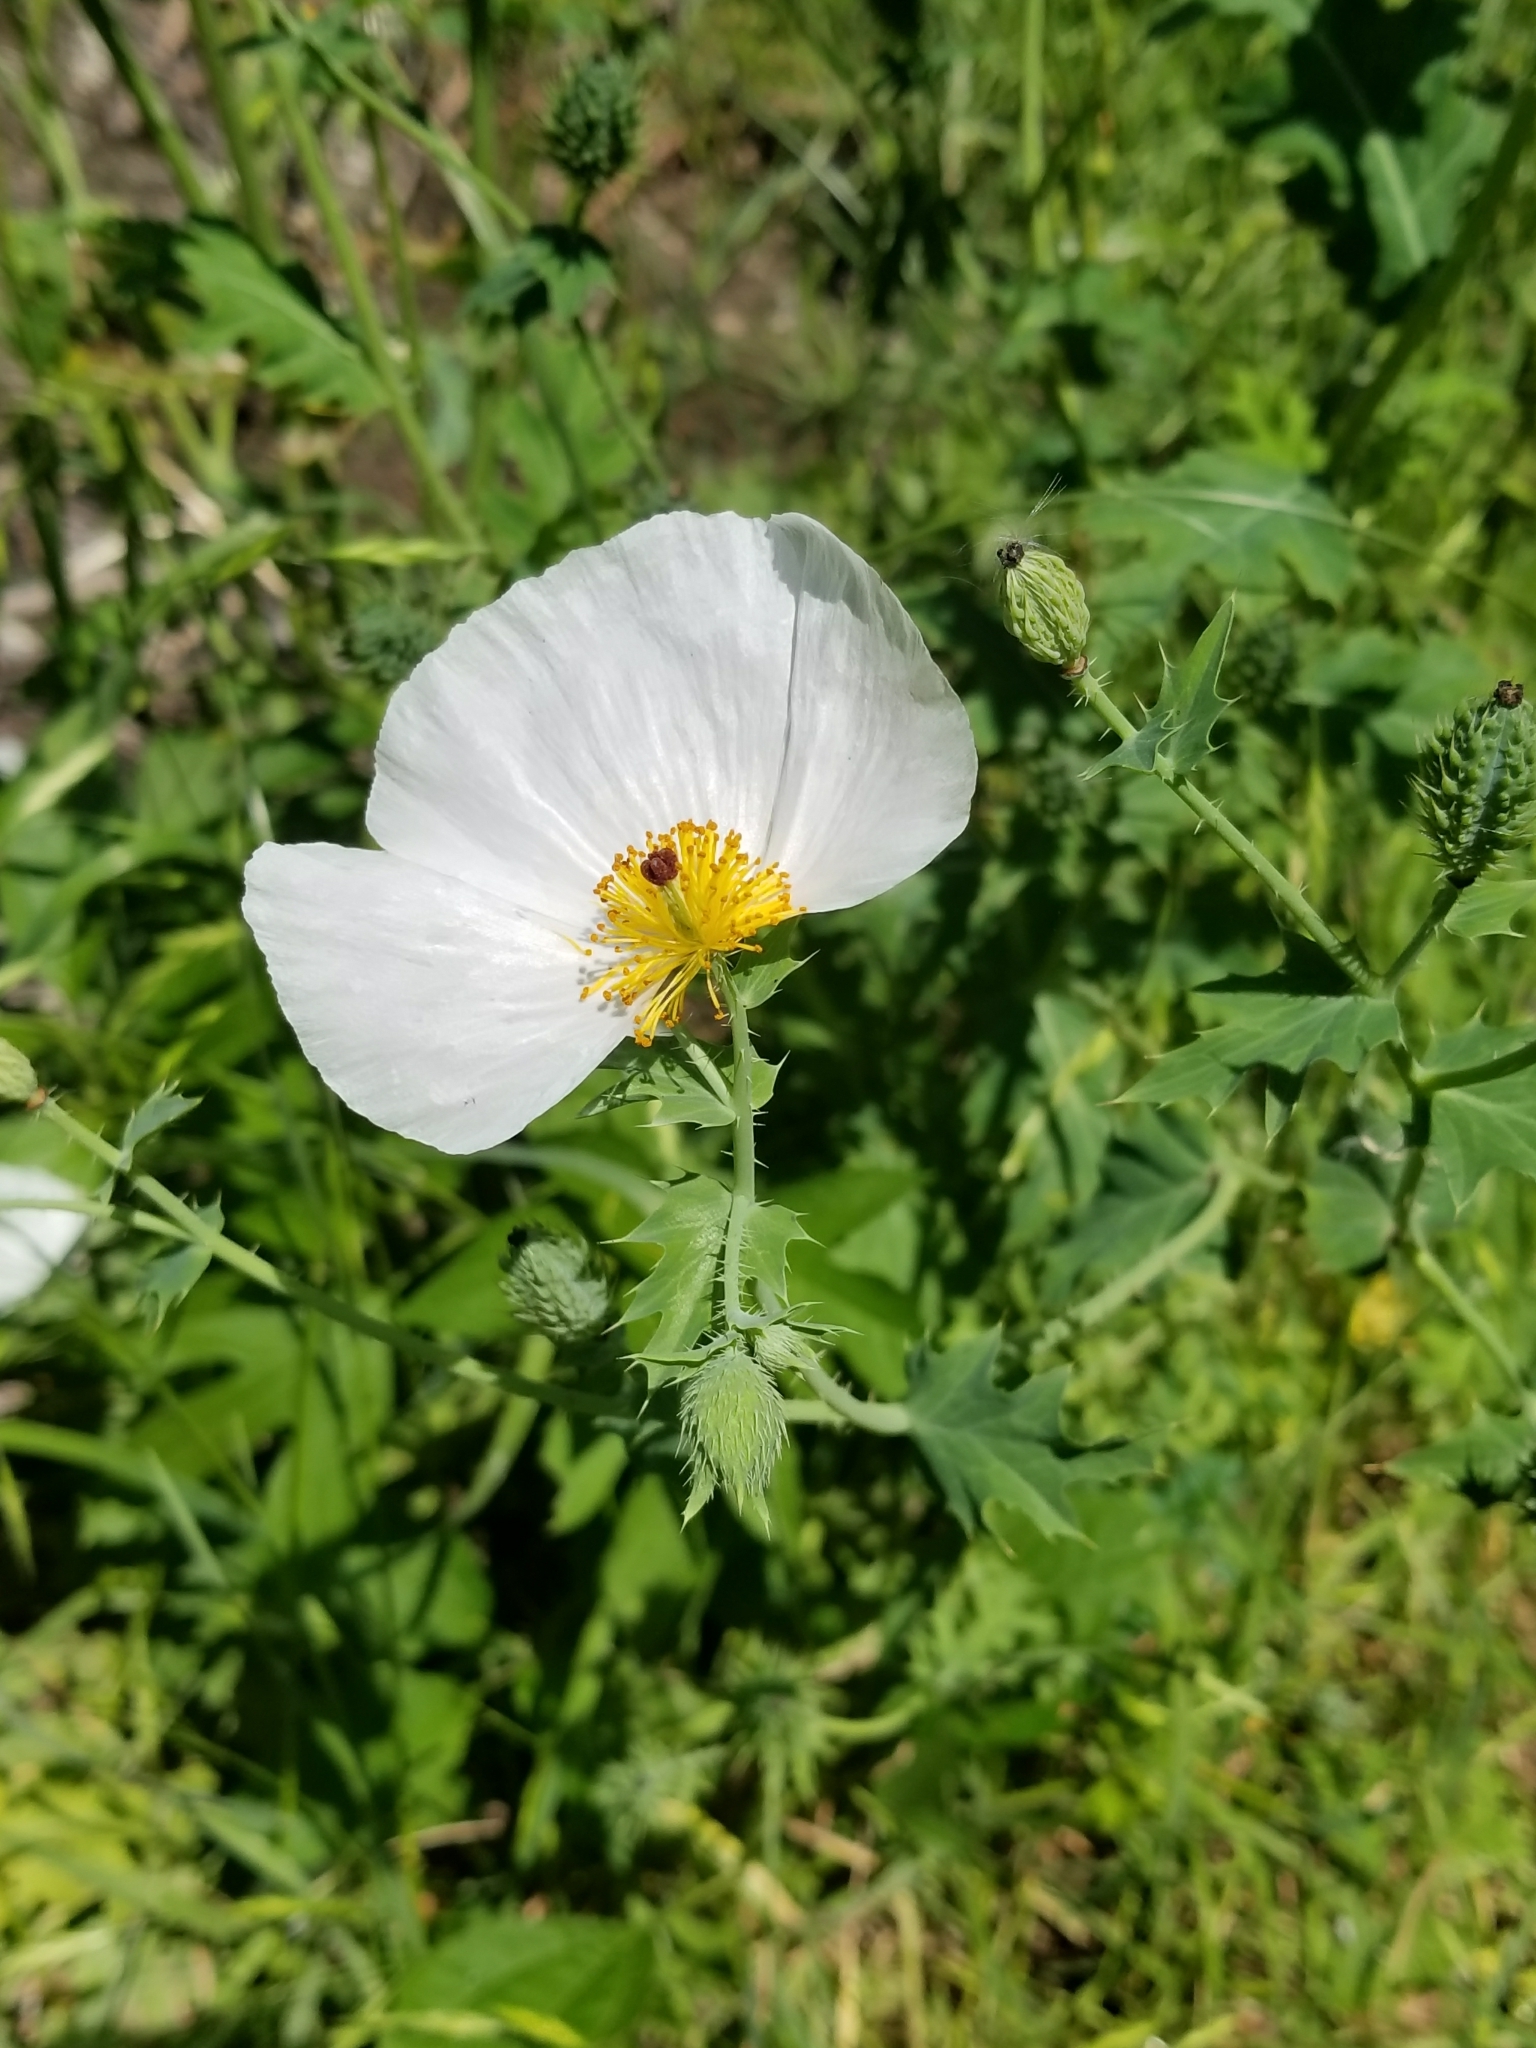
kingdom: Plantae
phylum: Tracheophyta
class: Magnoliopsida
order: Ranunculales
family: Papaveraceae
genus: Argemone
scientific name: Argemone albiflora
